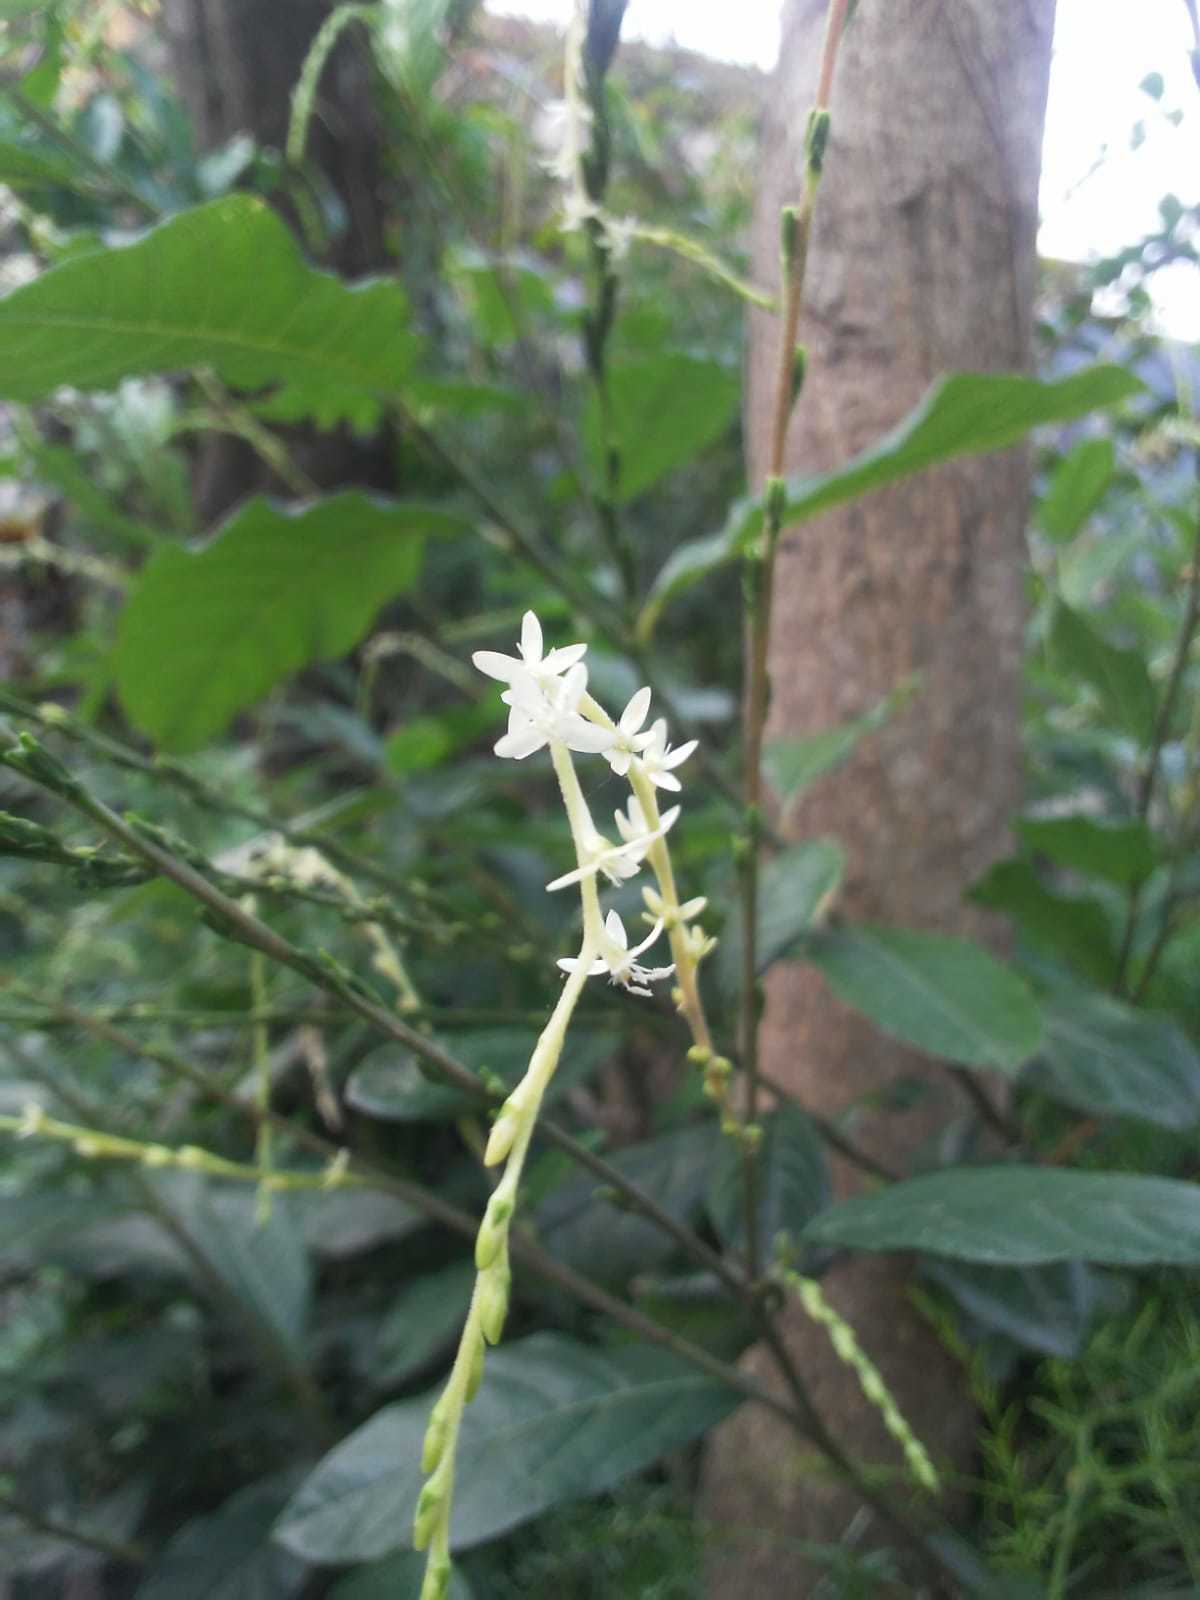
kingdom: Plantae
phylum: Tracheophyta
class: Magnoliopsida
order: Caryophyllales
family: Phytolaccaceae
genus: Petiveria
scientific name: Petiveria alliacea
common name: Garlicweed
